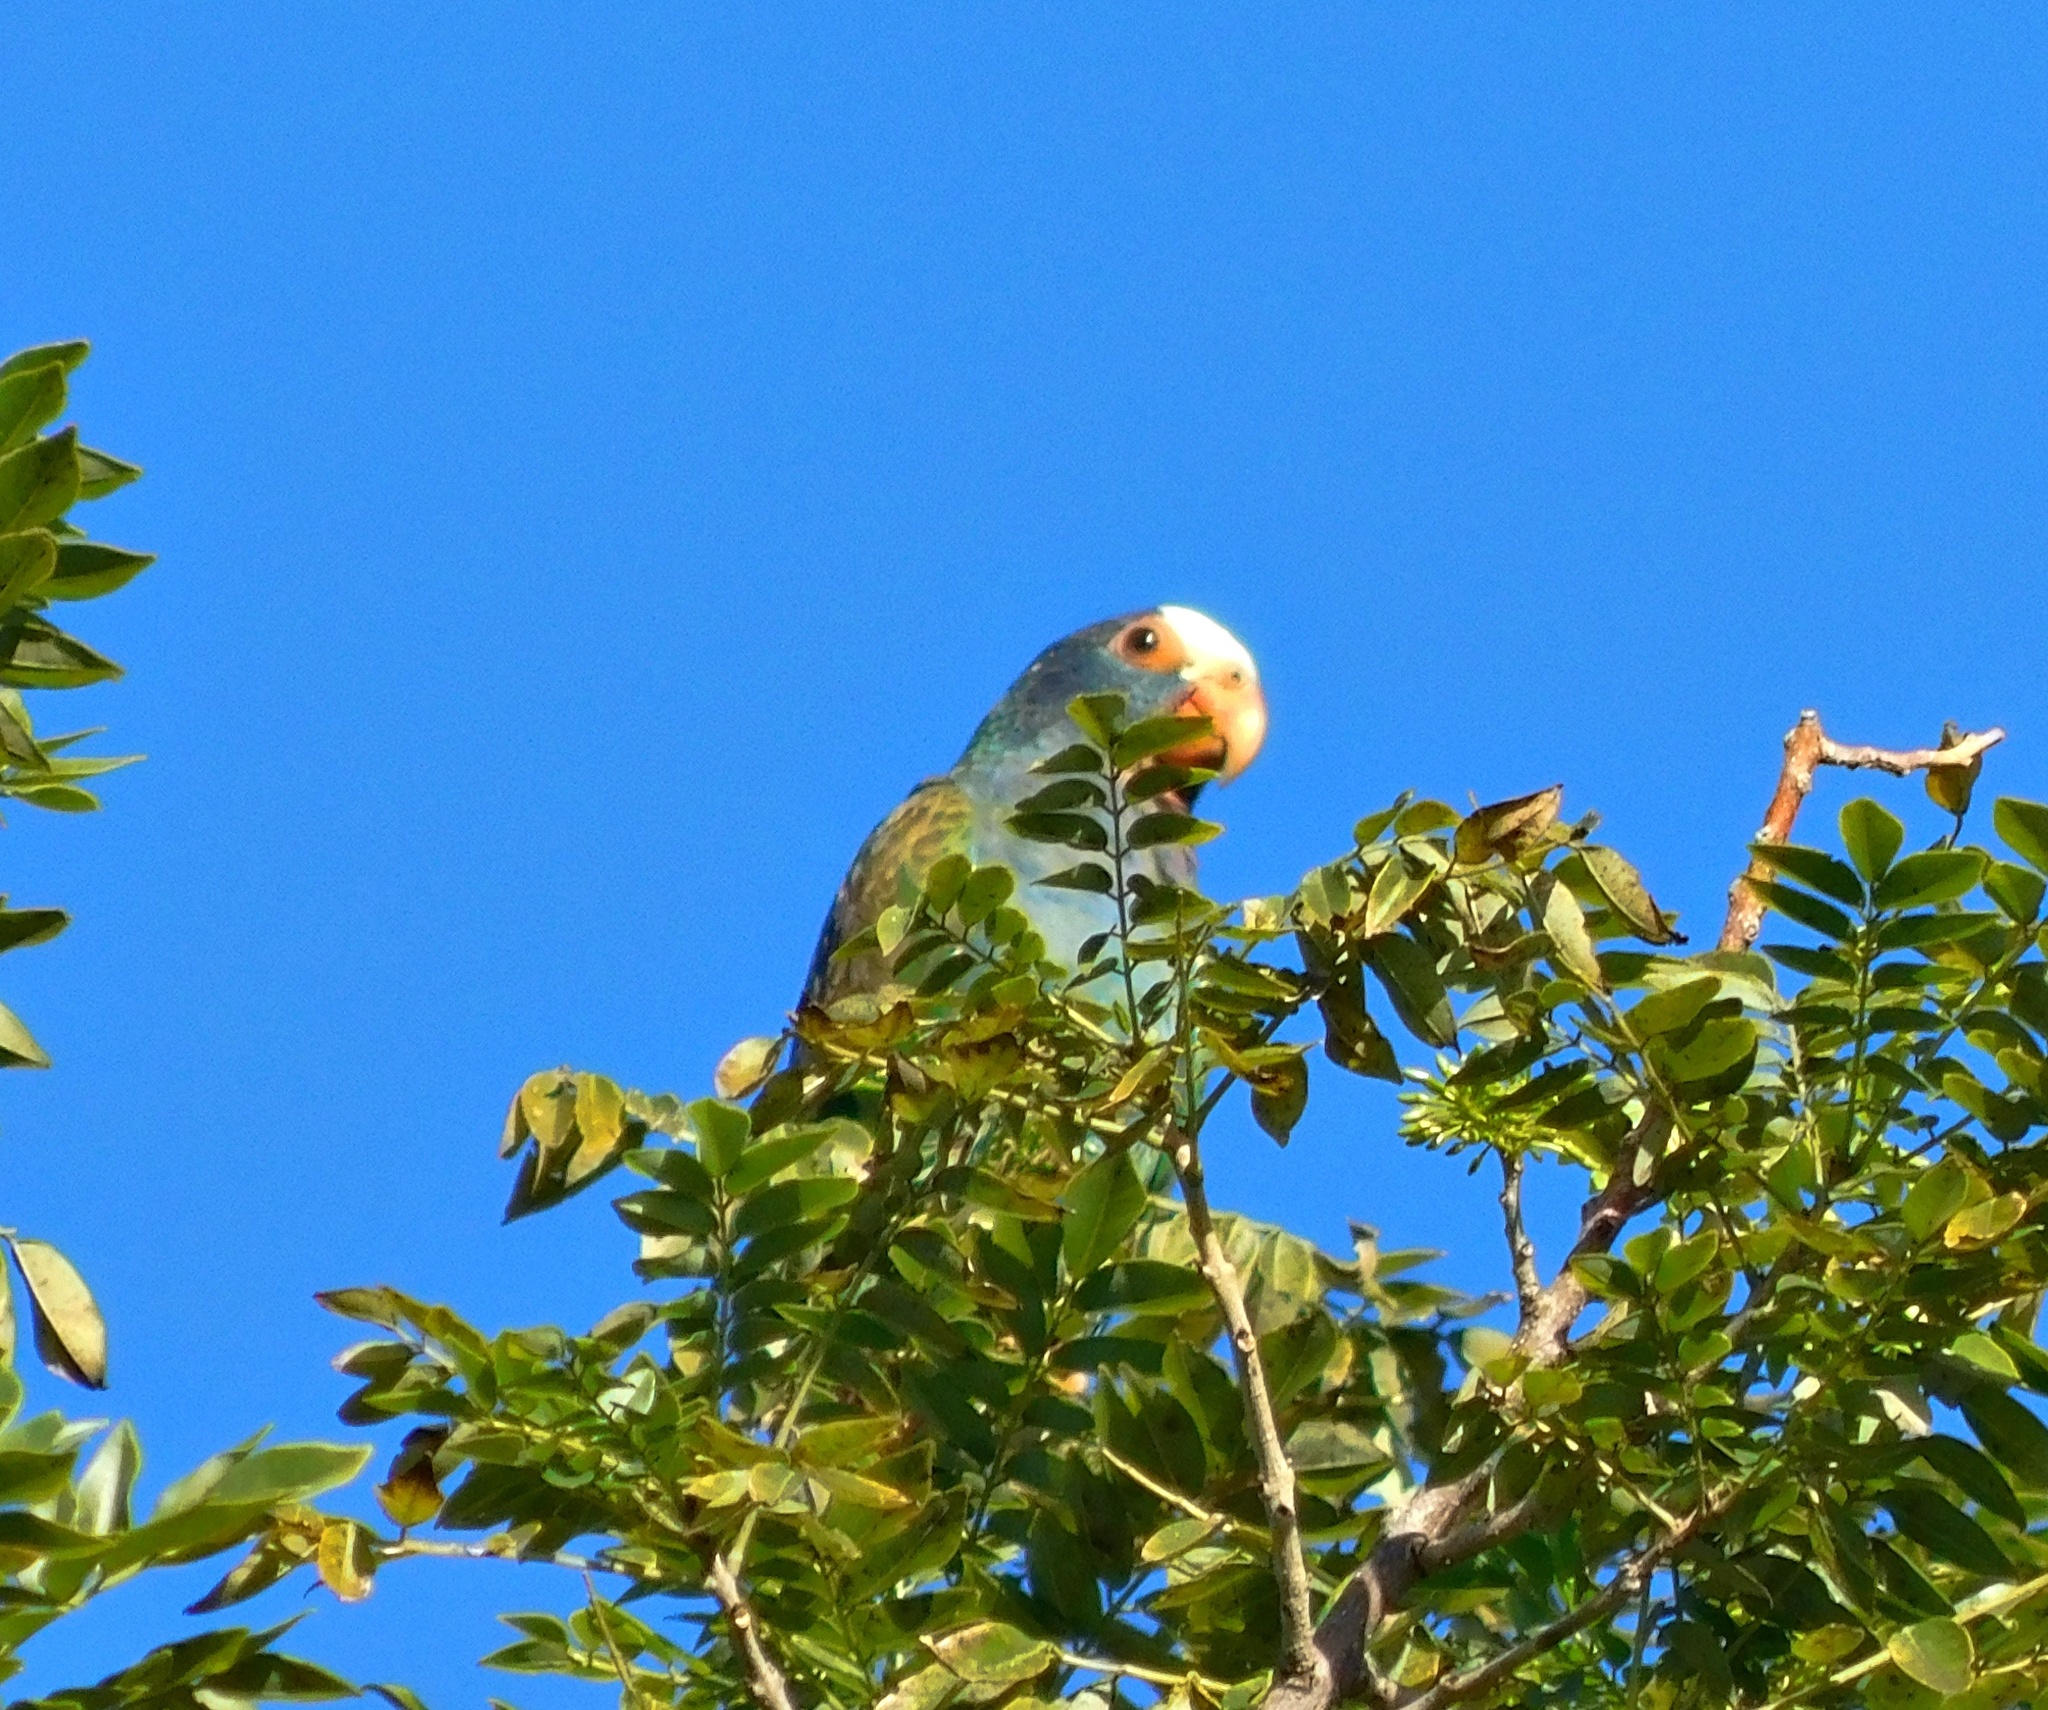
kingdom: Animalia
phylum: Chordata
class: Aves
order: Psittaciformes
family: Psittacidae
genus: Pionus
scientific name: Pionus senilis
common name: White-crowned parrot
